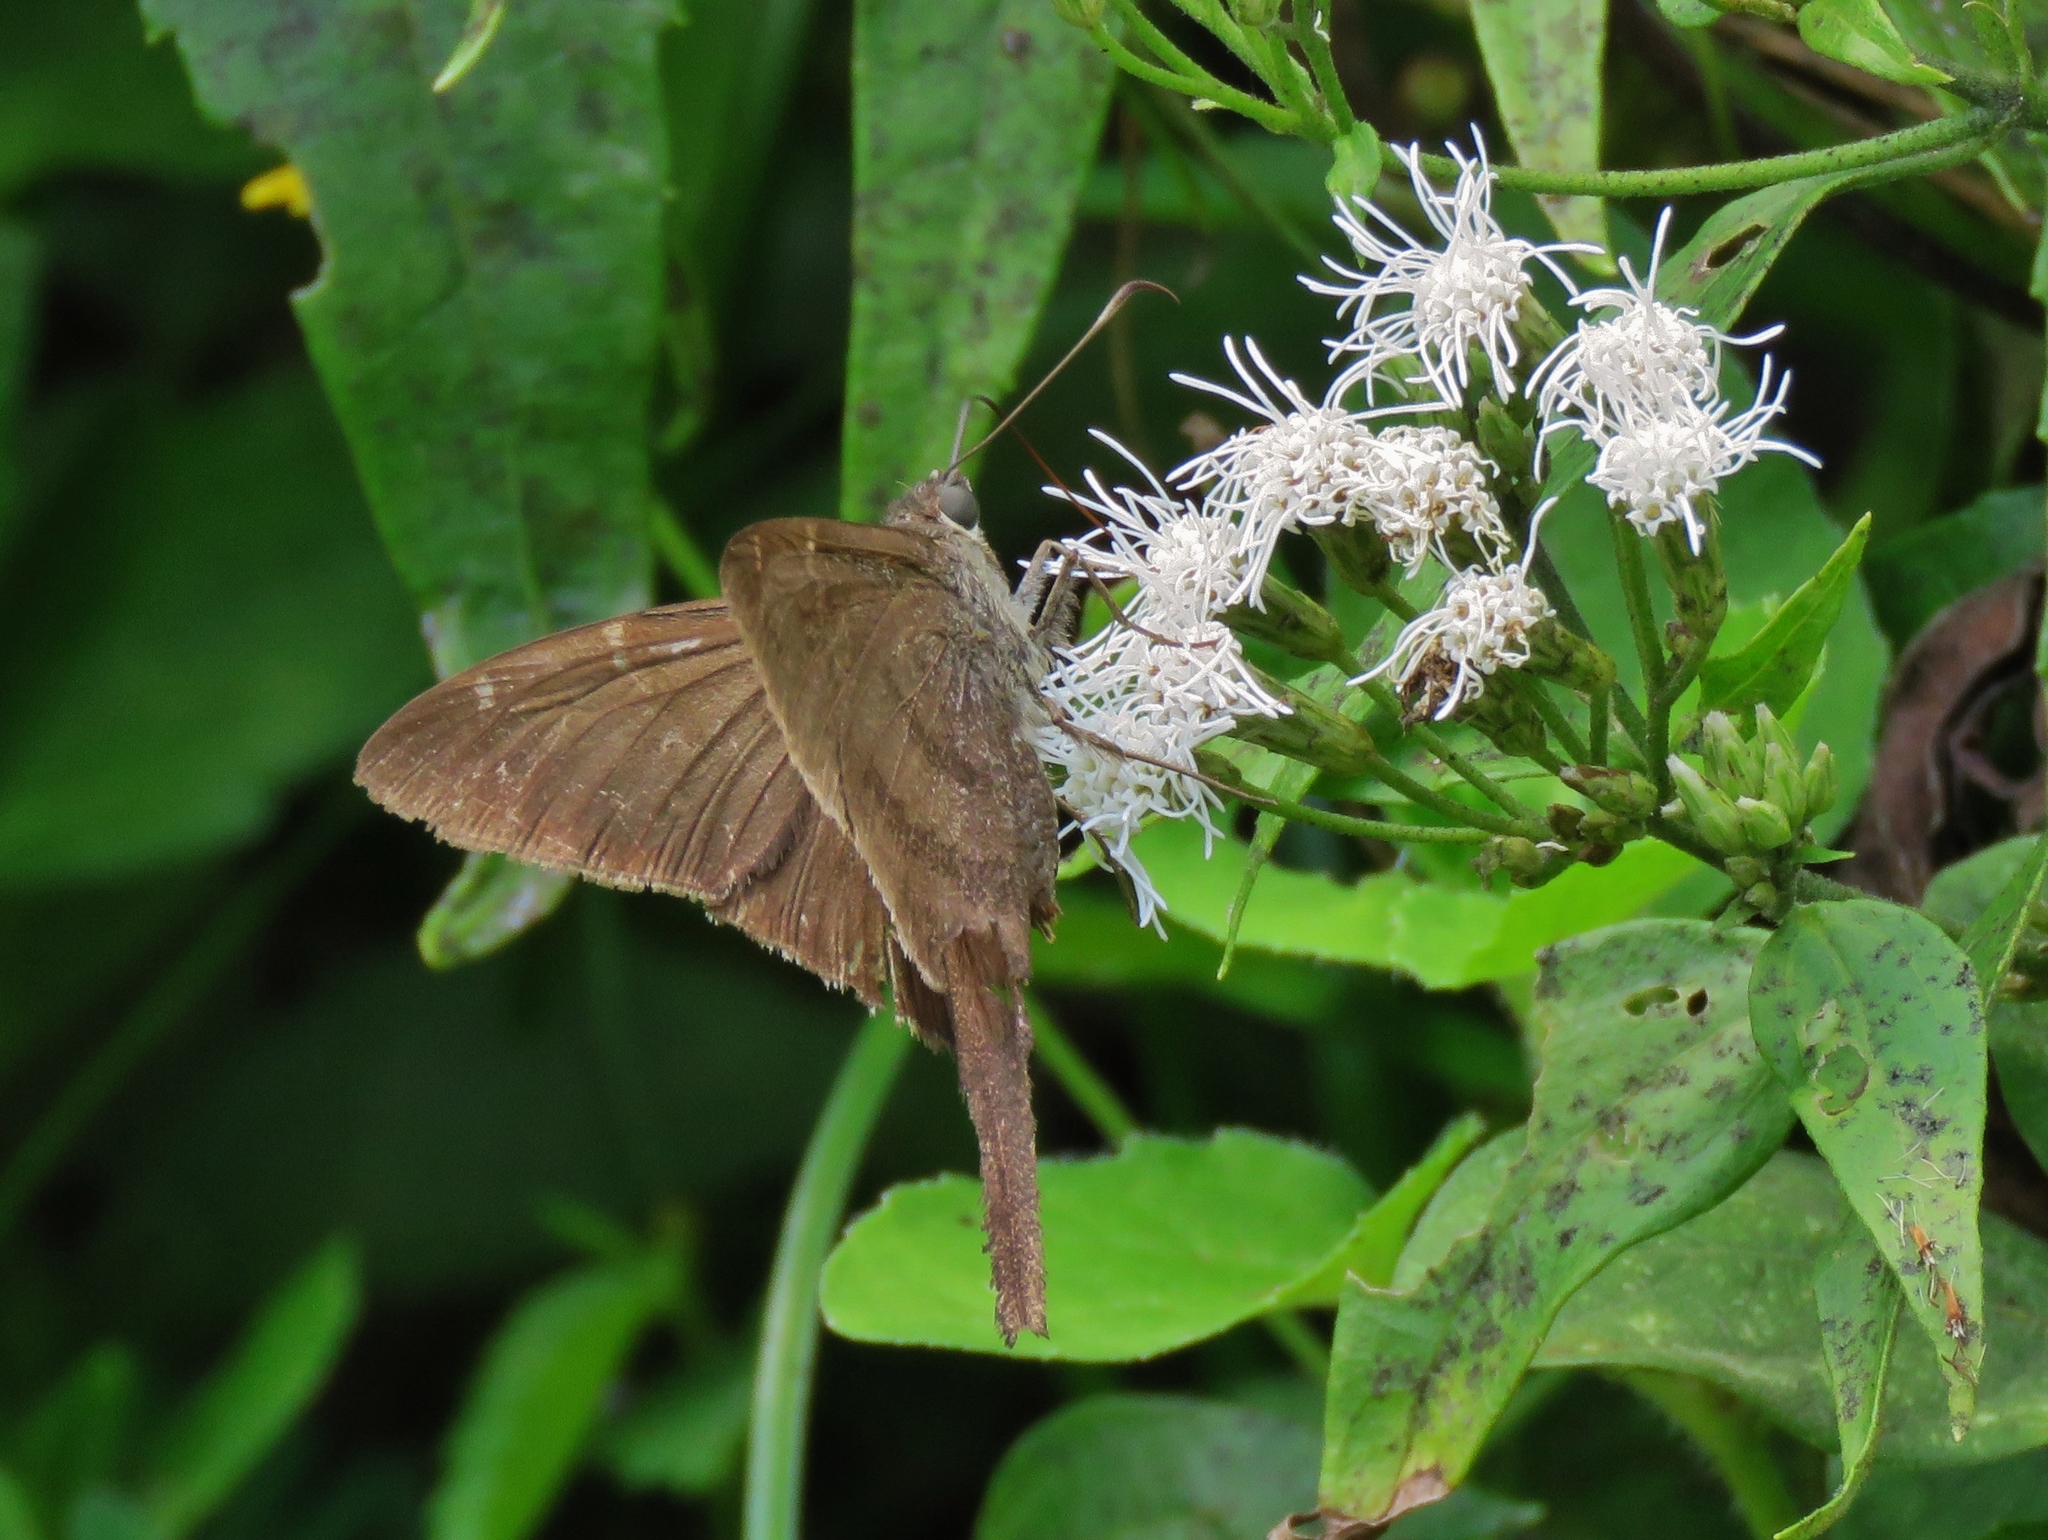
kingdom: Animalia
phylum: Arthropoda
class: Insecta
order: Lepidoptera
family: Hesperiidae
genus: Urbanus
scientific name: Urbanus procne
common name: Brown longtail
